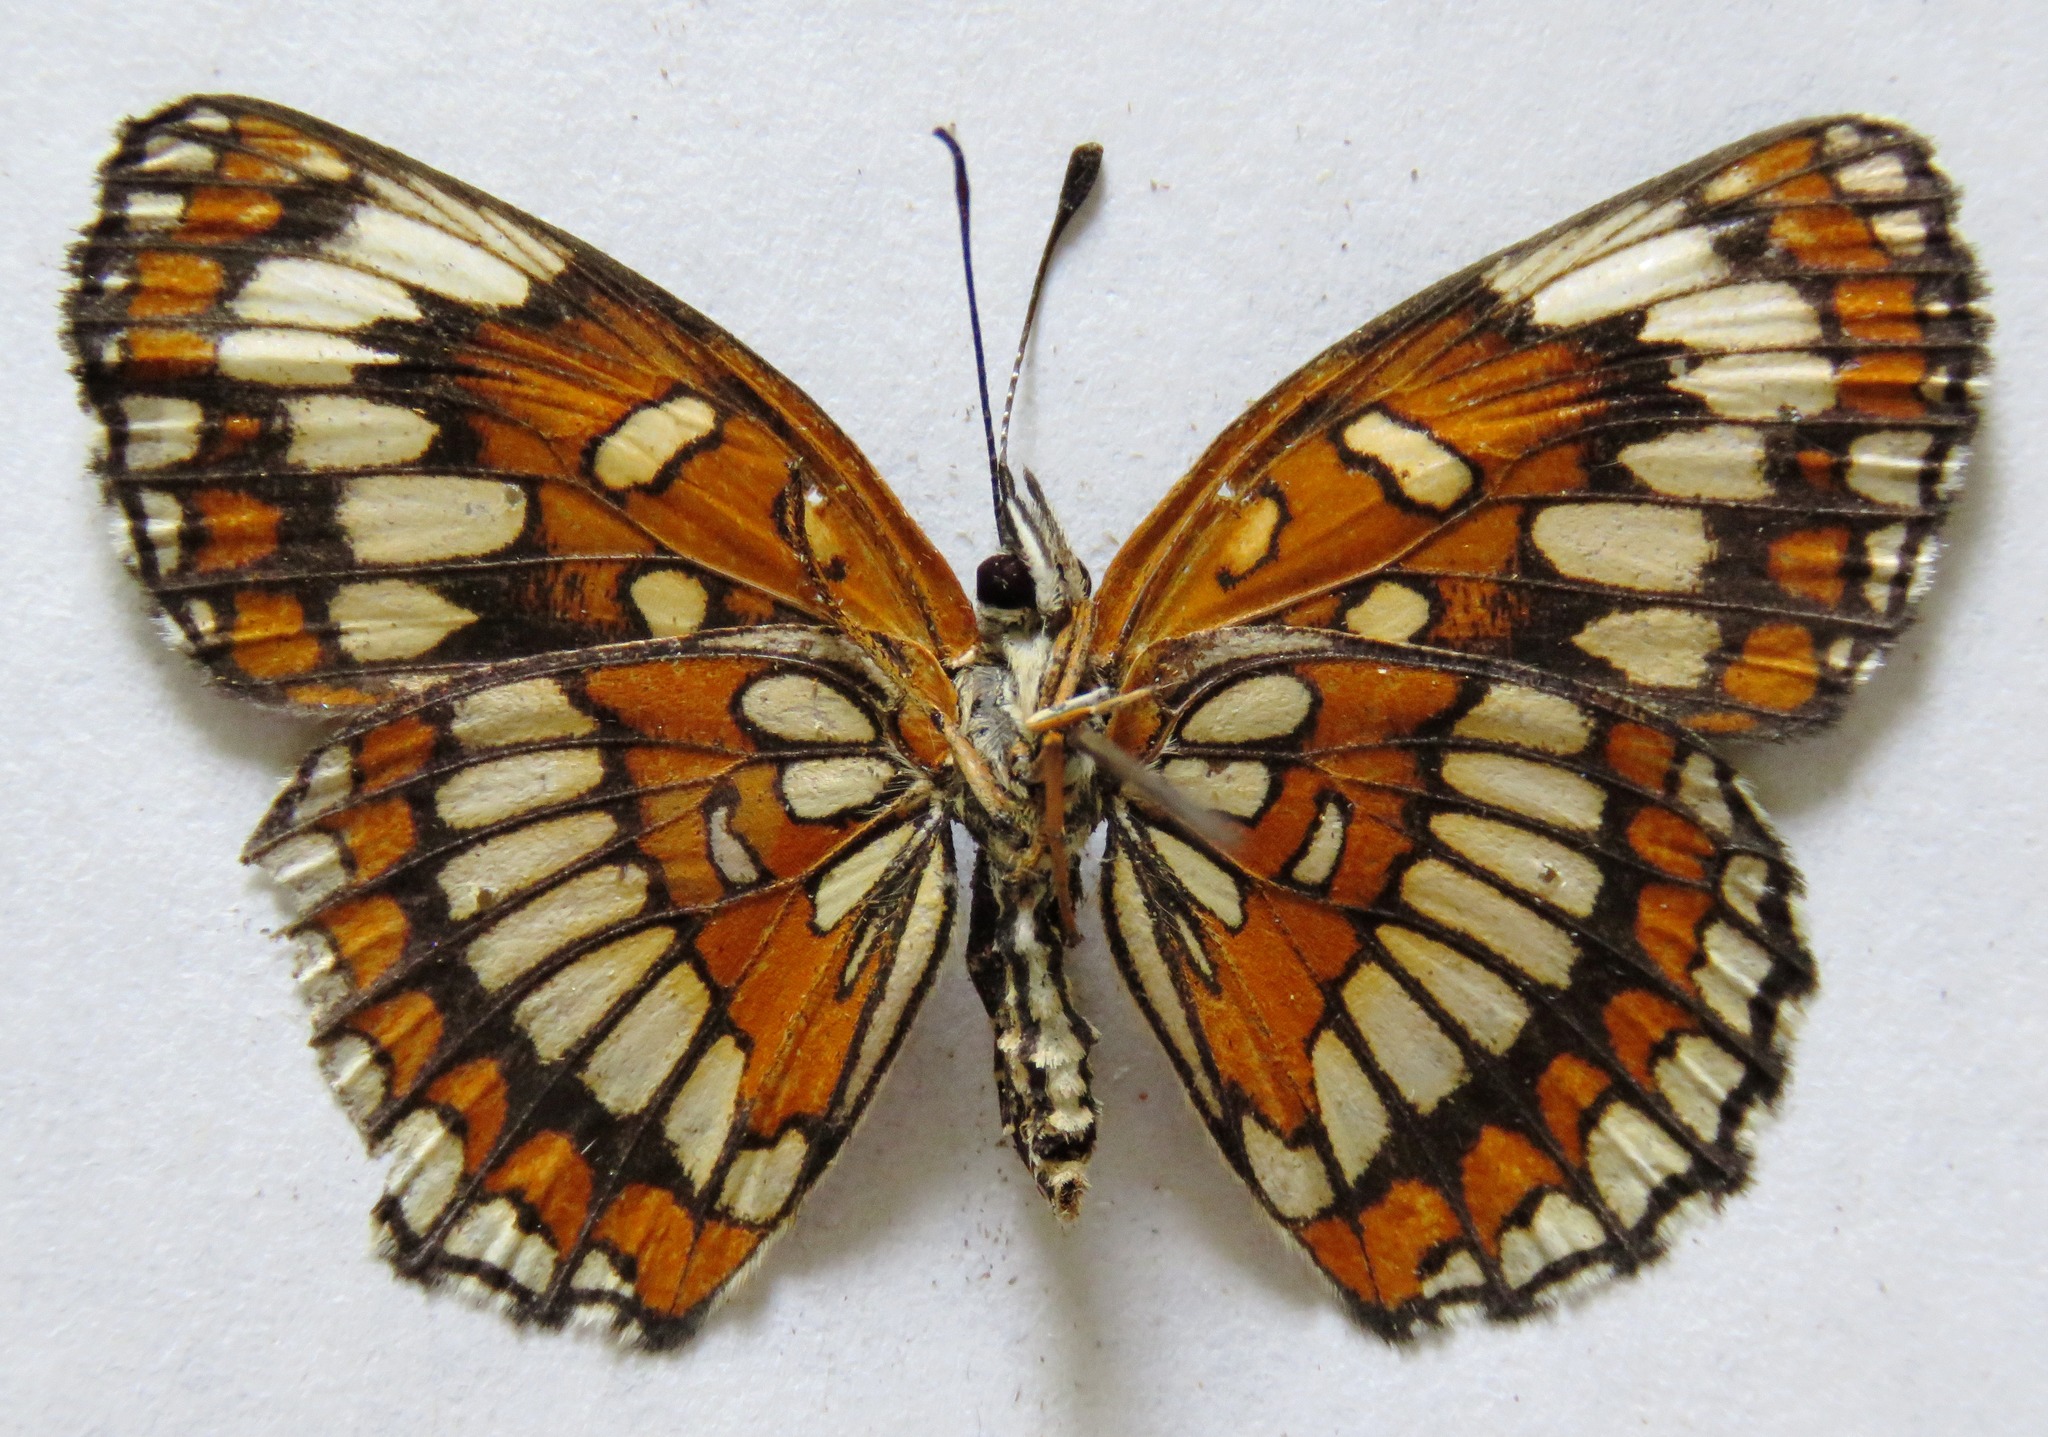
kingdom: Animalia
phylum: Arthropoda
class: Insecta
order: Lepidoptera
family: Nymphalidae
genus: Thessalia
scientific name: Thessalia theona
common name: Nymphalid moth
